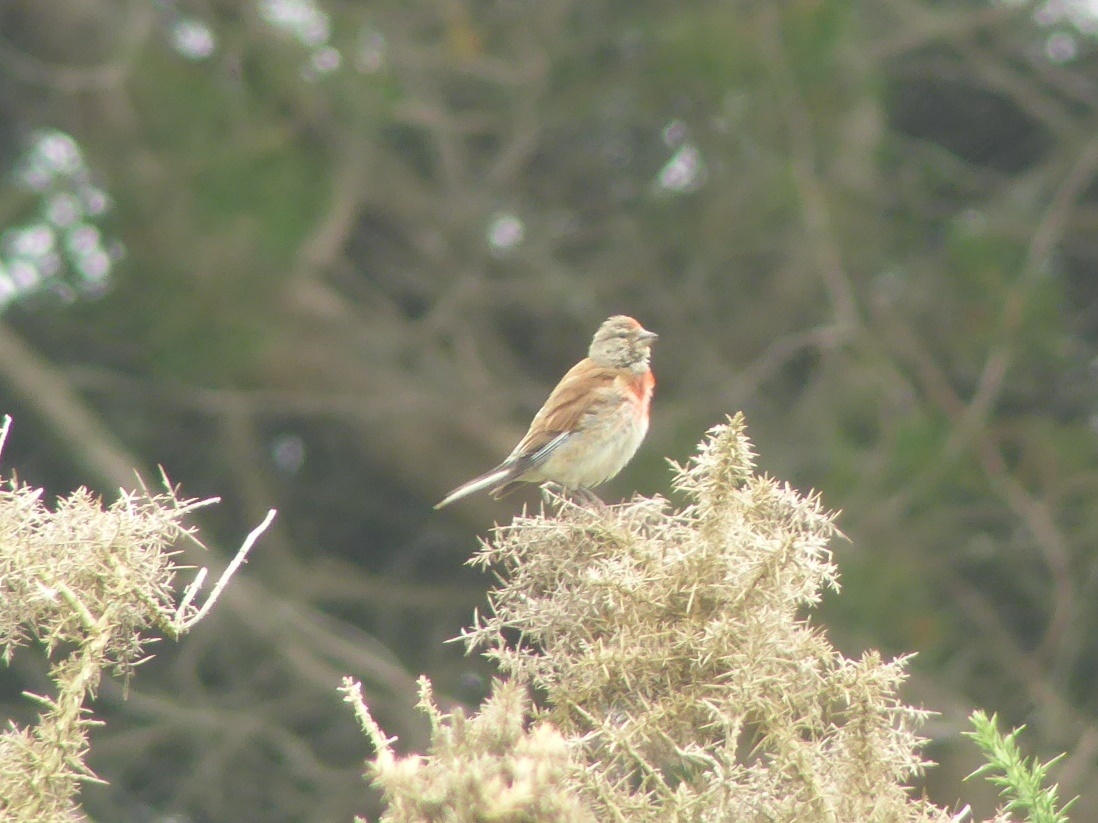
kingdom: Animalia
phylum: Chordata
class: Aves
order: Passeriformes
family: Fringillidae
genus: Linaria
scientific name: Linaria cannabina
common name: Common linnet
